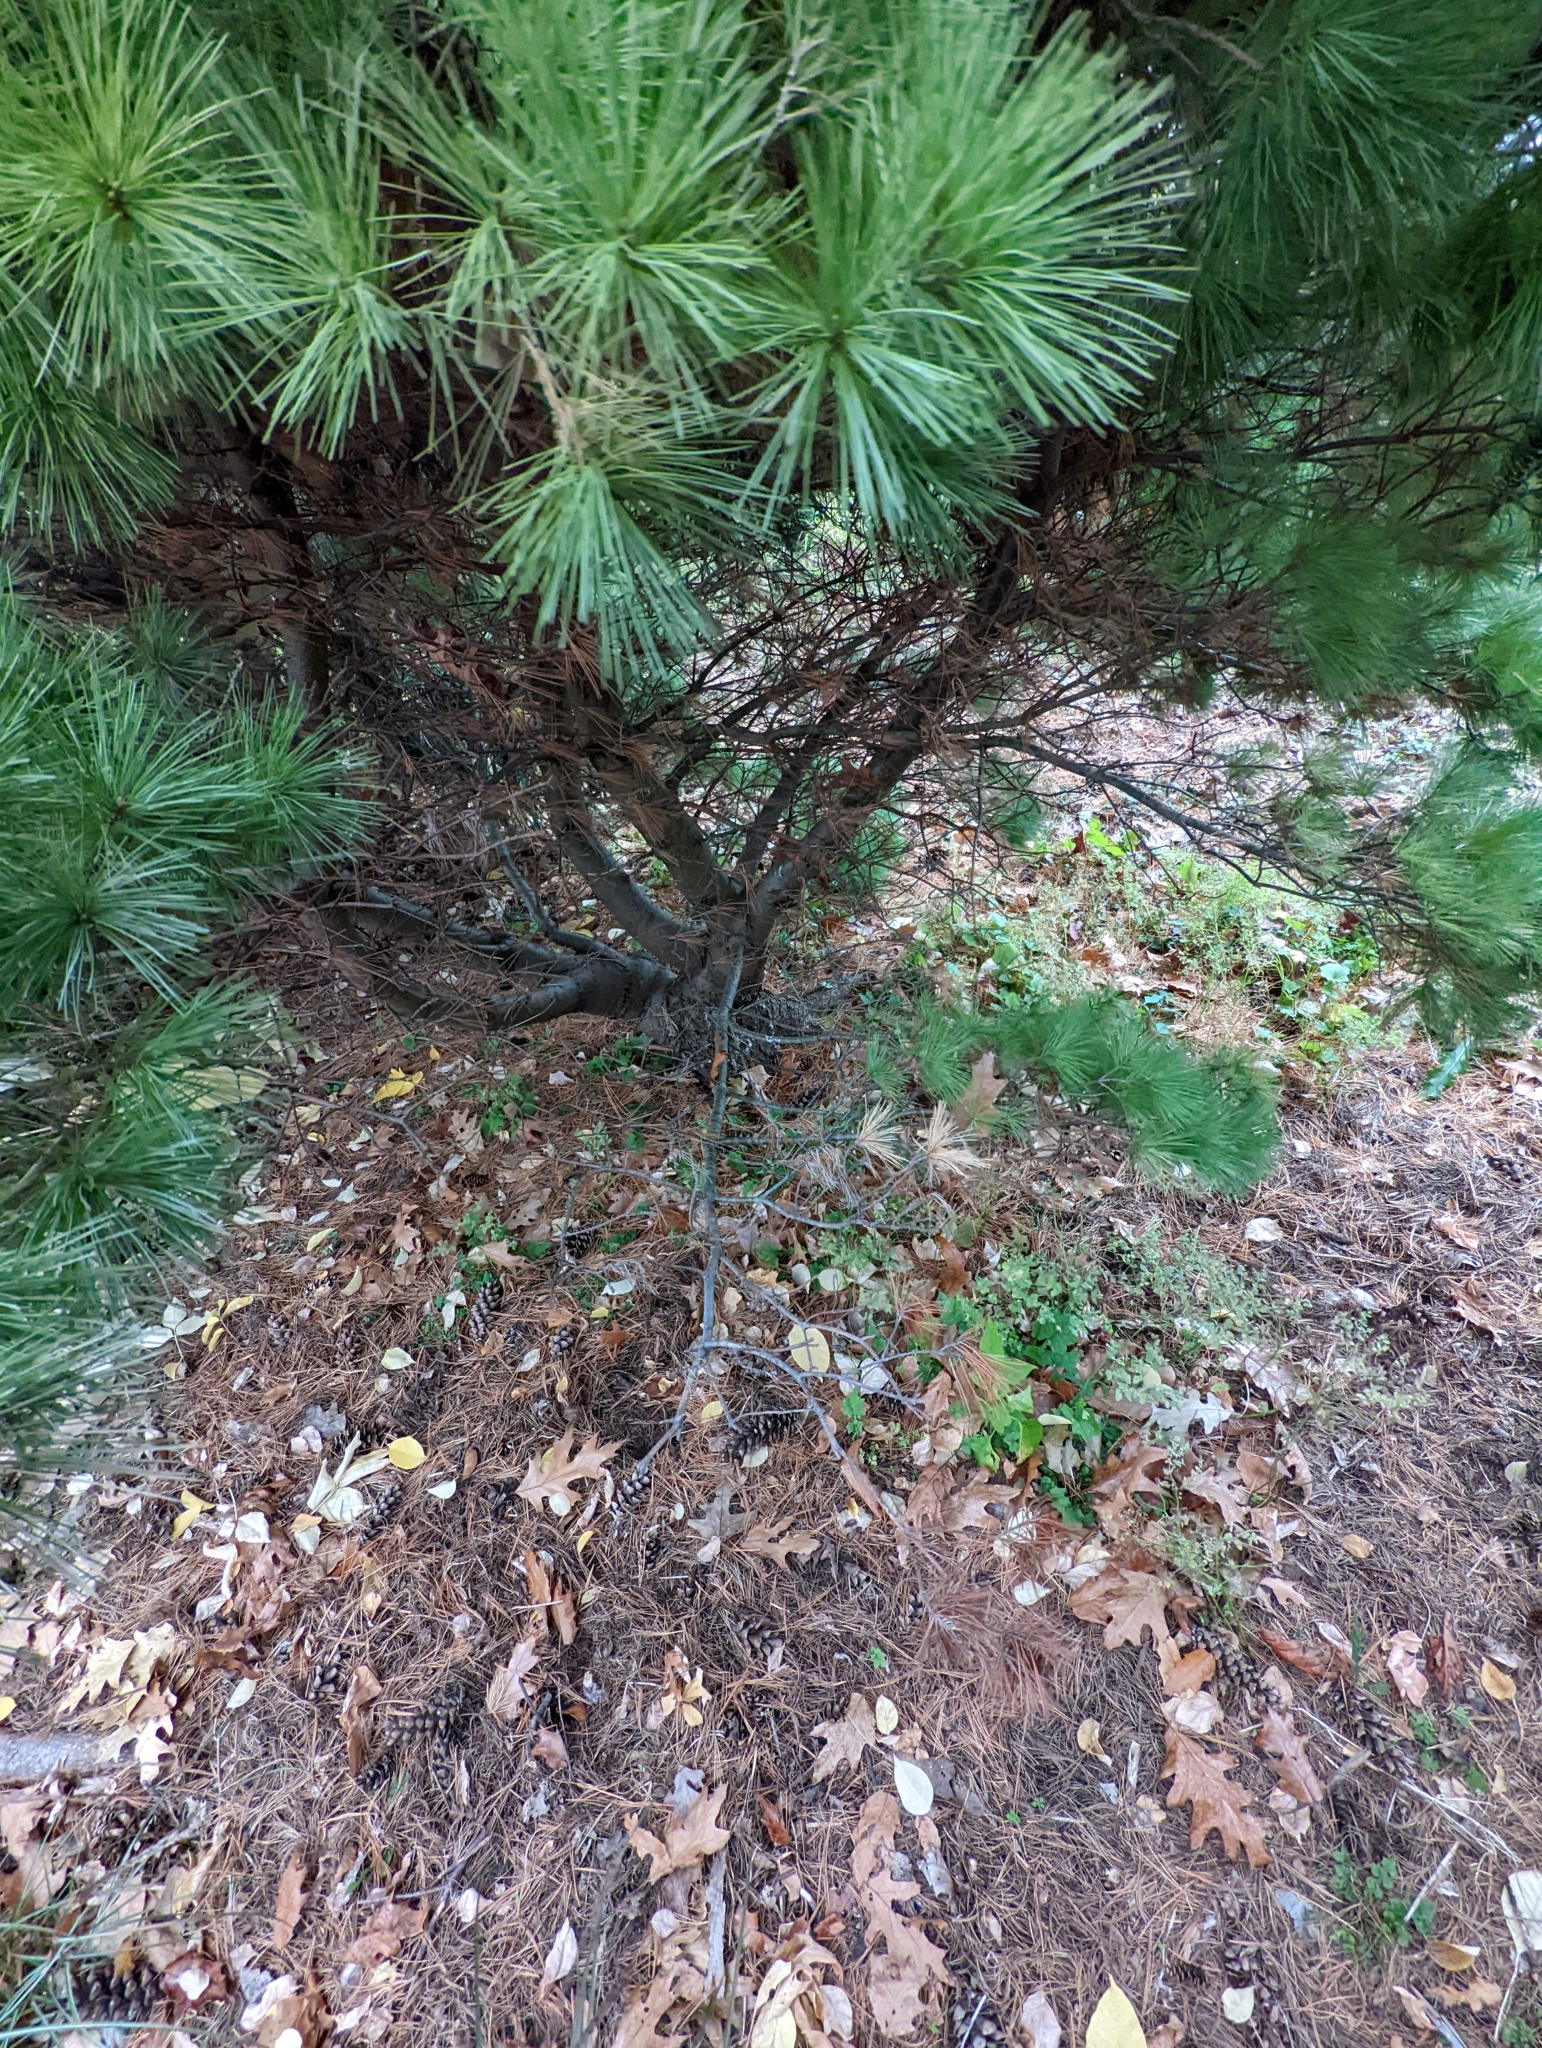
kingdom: Animalia
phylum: Arthropoda
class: Insecta
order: Coleoptera
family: Curculionidae
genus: Pityophthorus
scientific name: Pityophthorus consimilis
